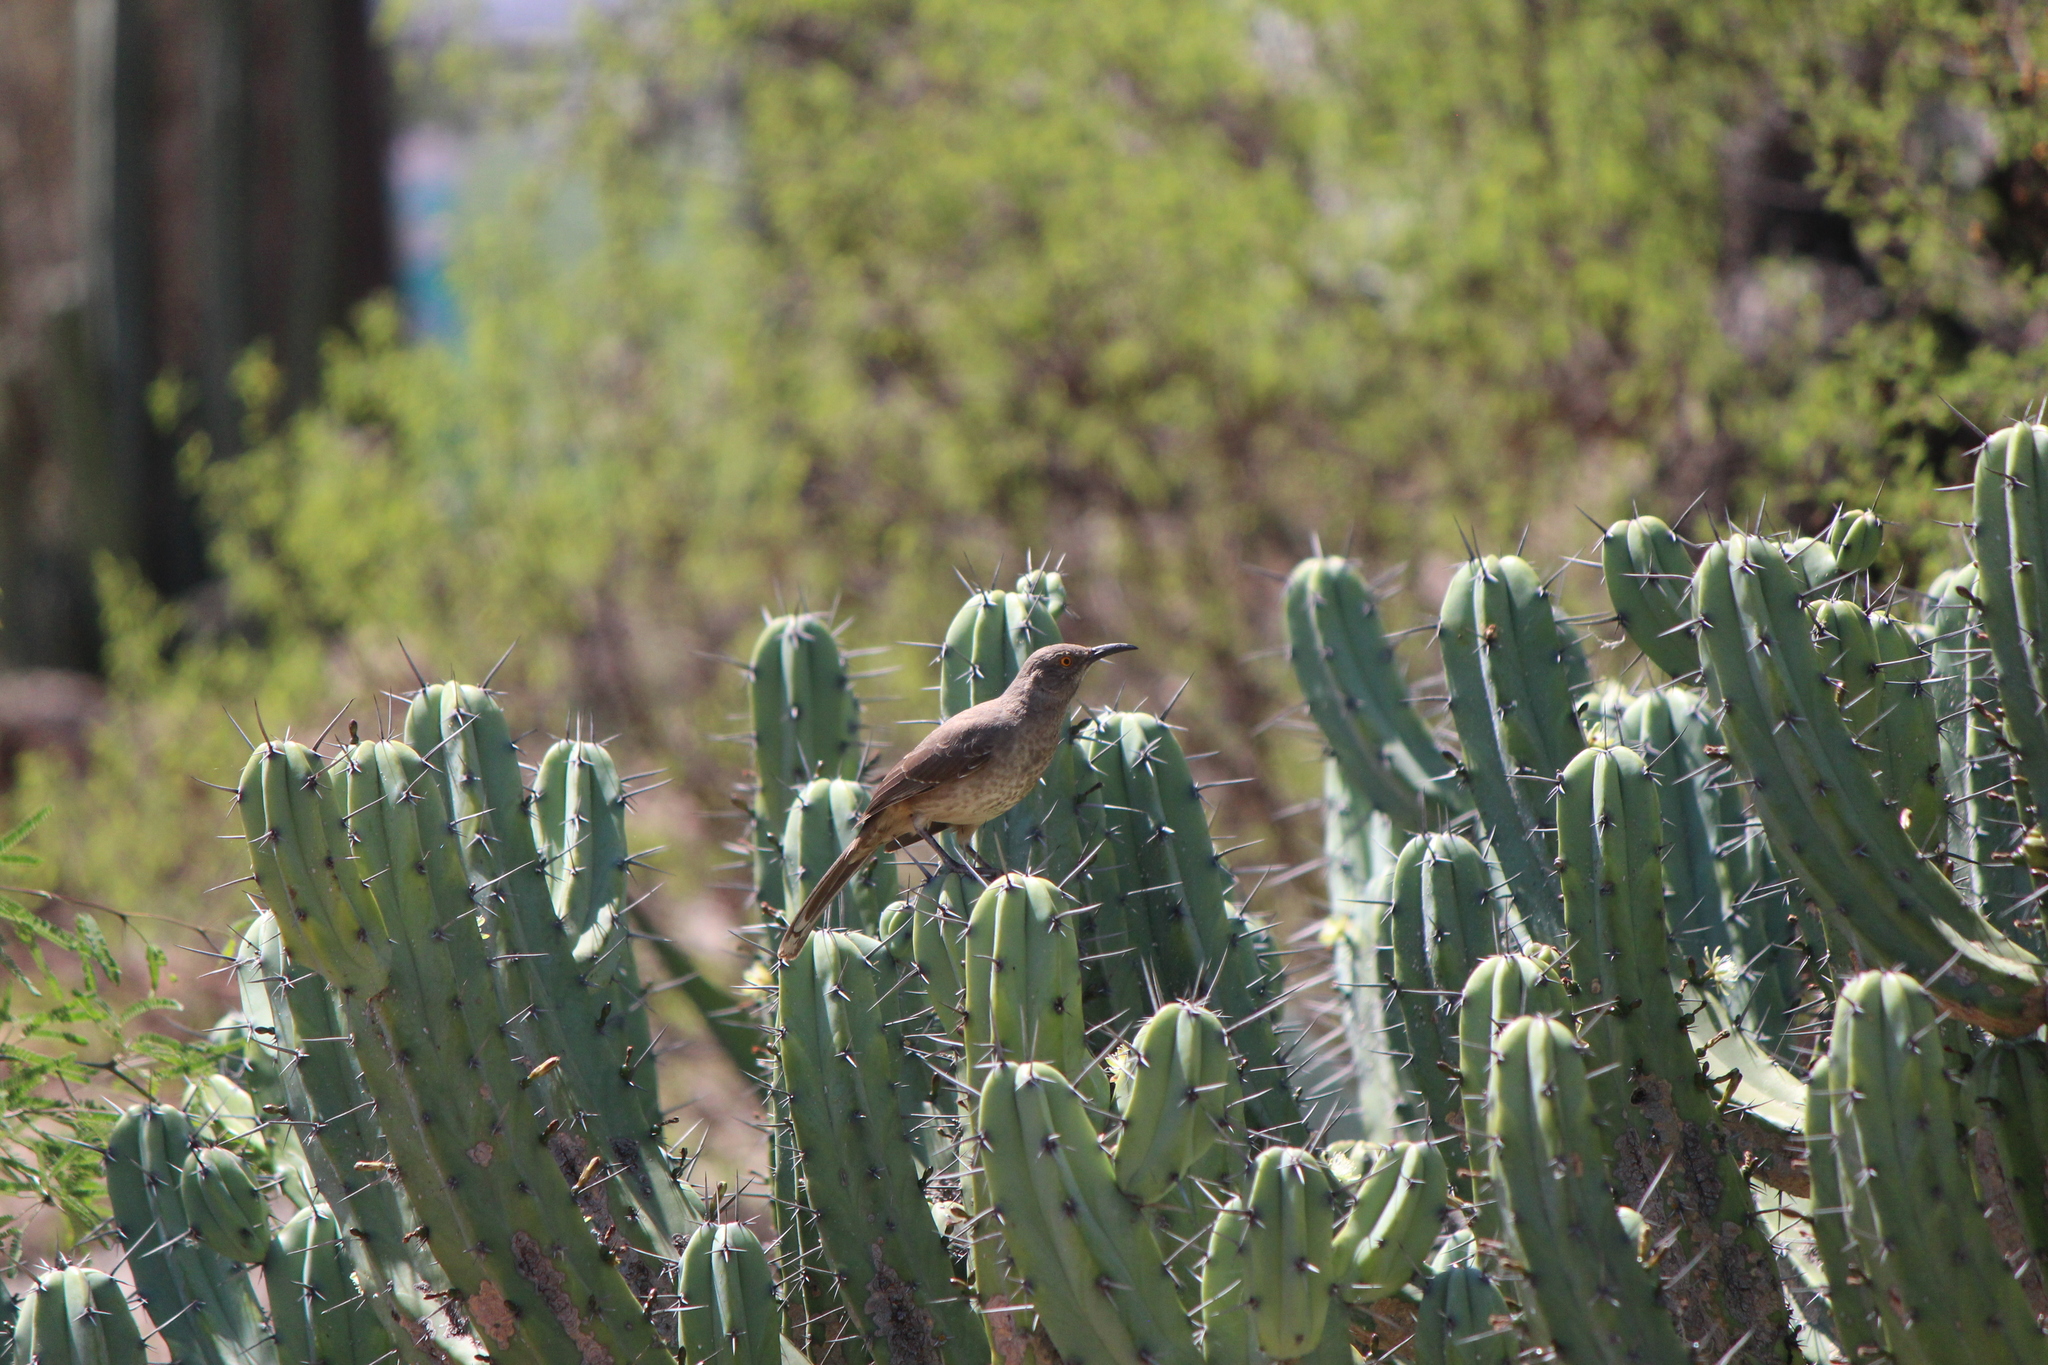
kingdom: Animalia
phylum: Chordata
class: Aves
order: Passeriformes
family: Mimidae
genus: Toxostoma
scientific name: Toxostoma curvirostre
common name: Curve-billed thrasher
